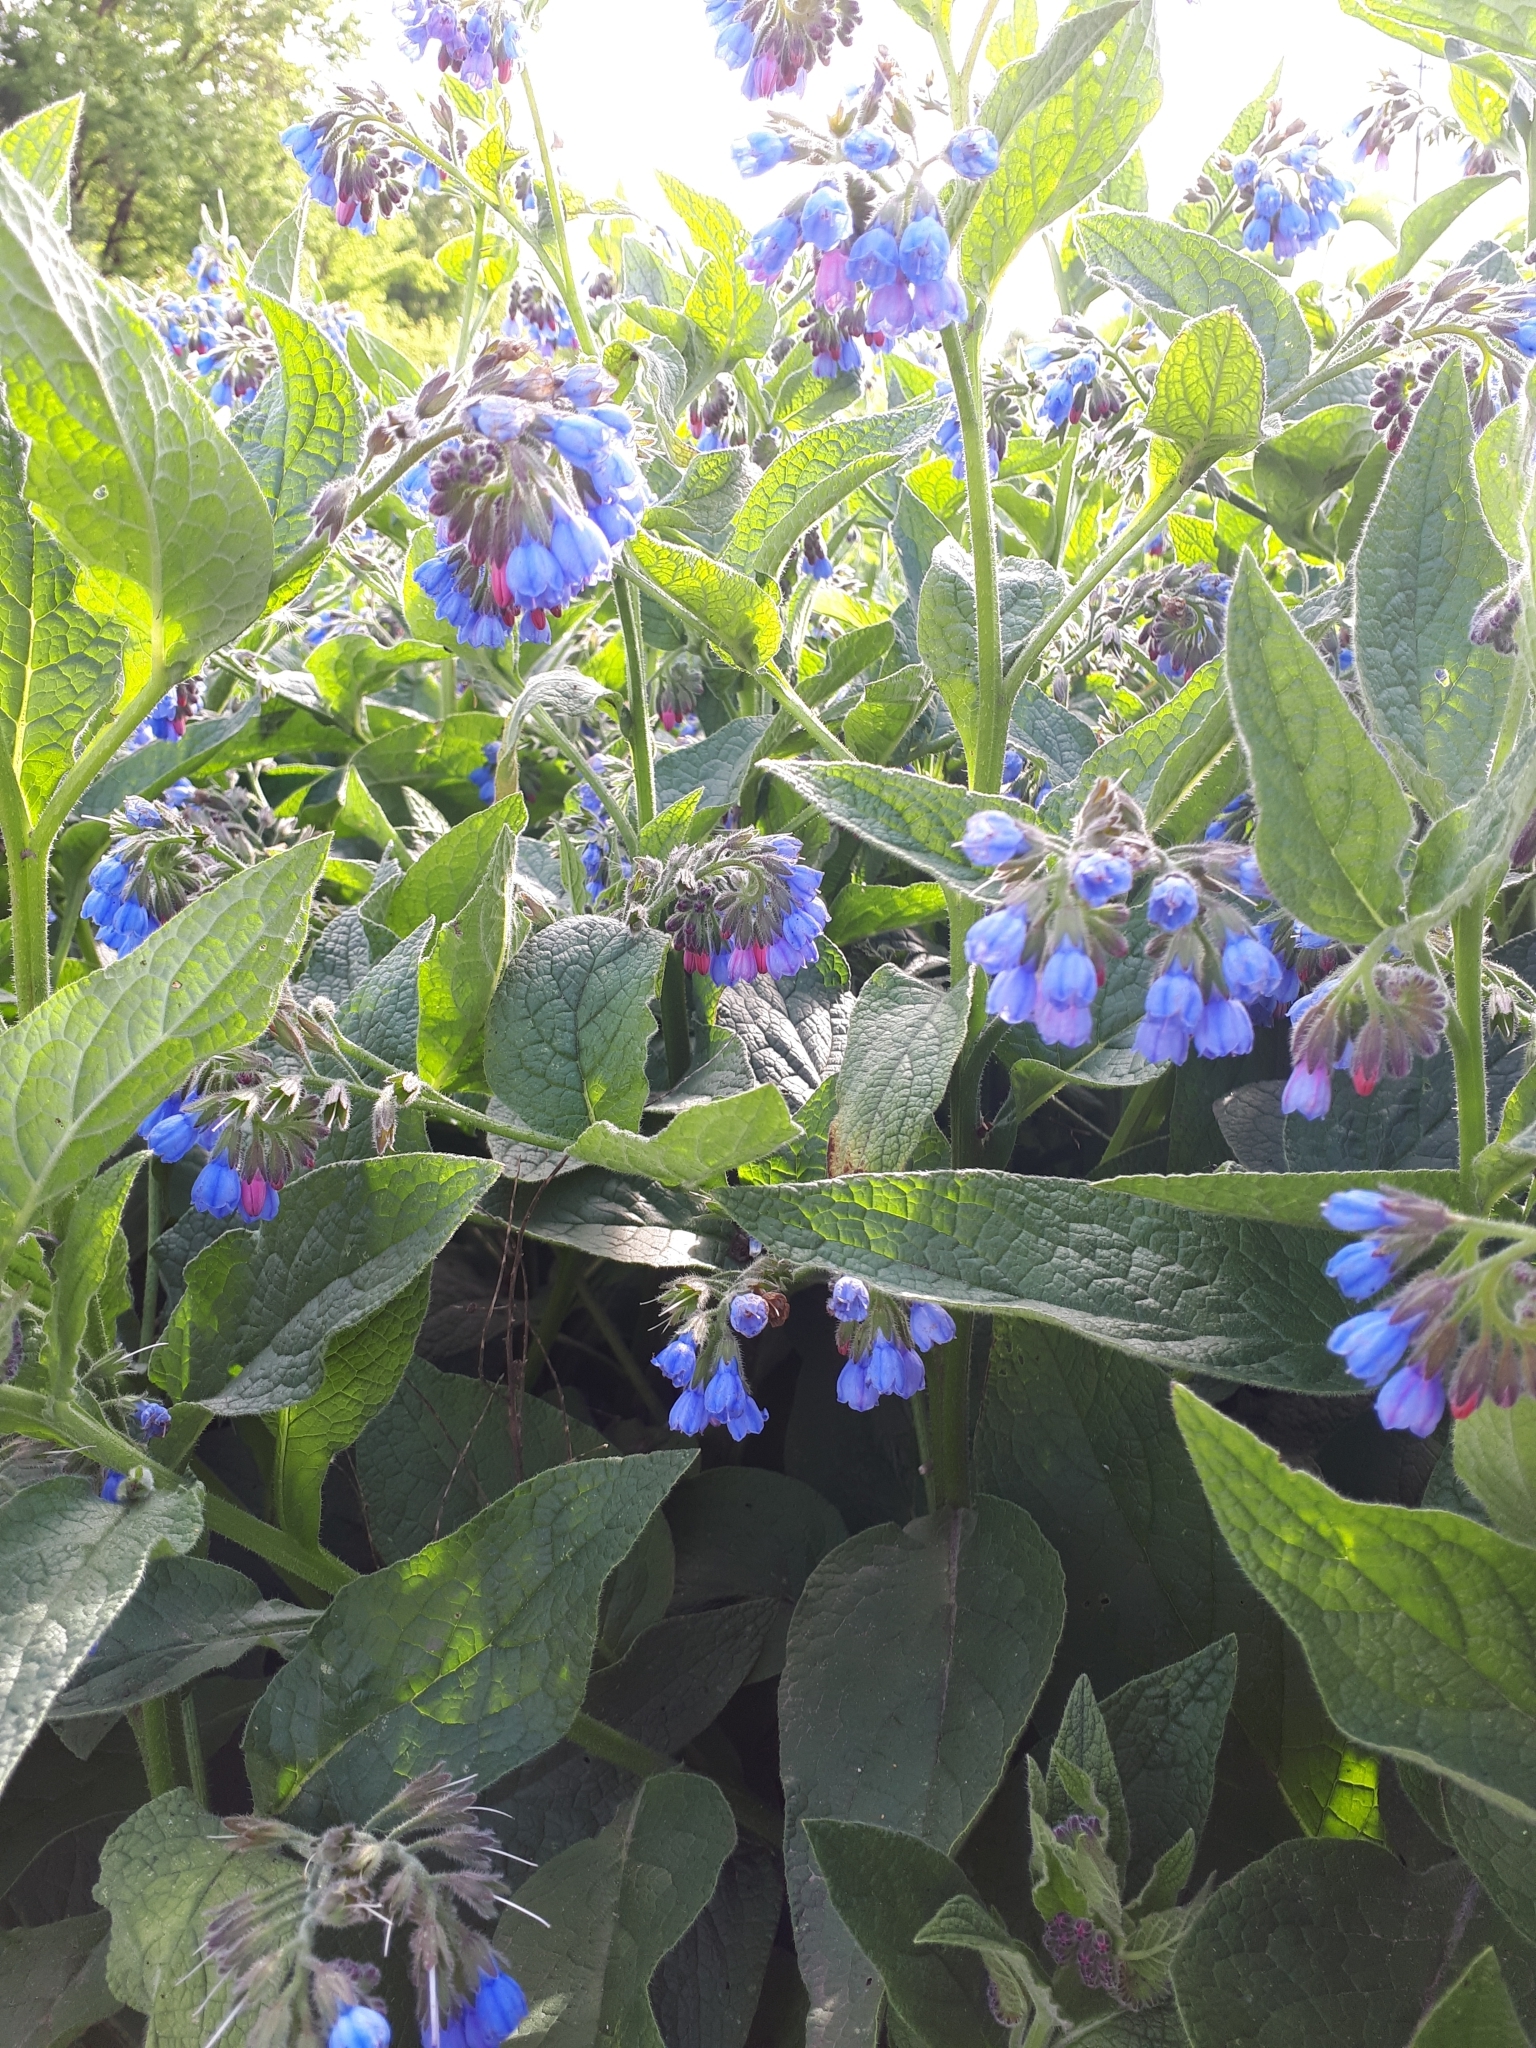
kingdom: Plantae
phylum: Tracheophyta
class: Magnoliopsida
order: Boraginales
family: Boraginaceae
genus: Symphytum
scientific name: Symphytum caucasicum
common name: Caucasian comfrey
